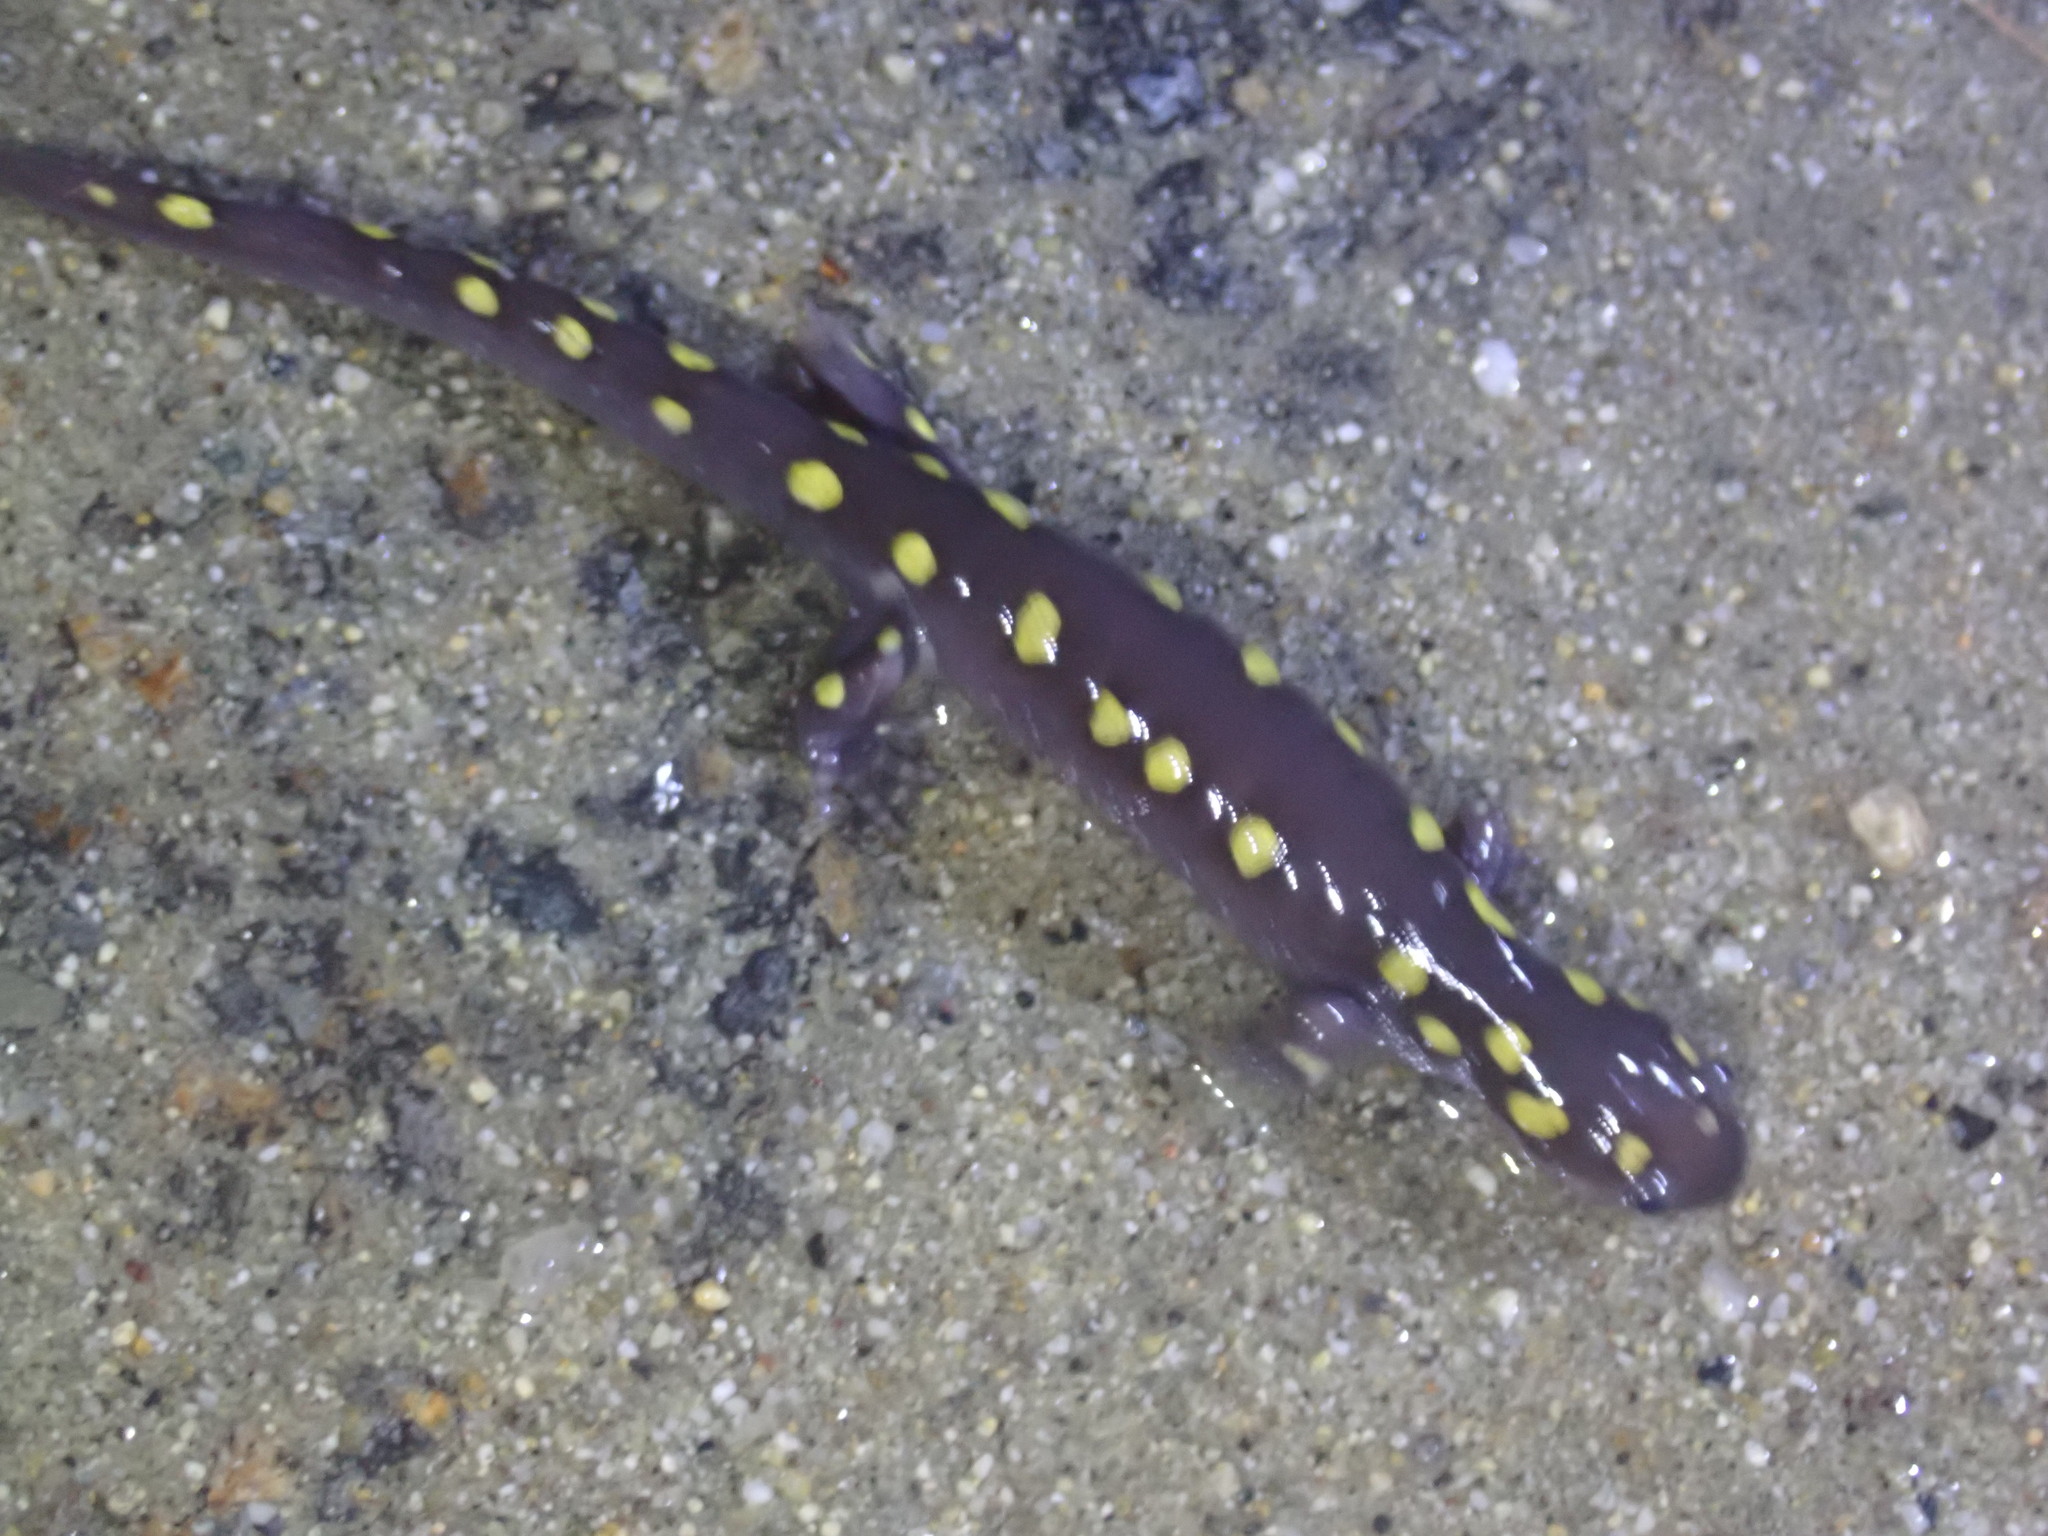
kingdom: Animalia
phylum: Chordata
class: Amphibia
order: Caudata
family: Ambystomatidae
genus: Ambystoma
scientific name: Ambystoma maculatum
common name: Spotted salamander
